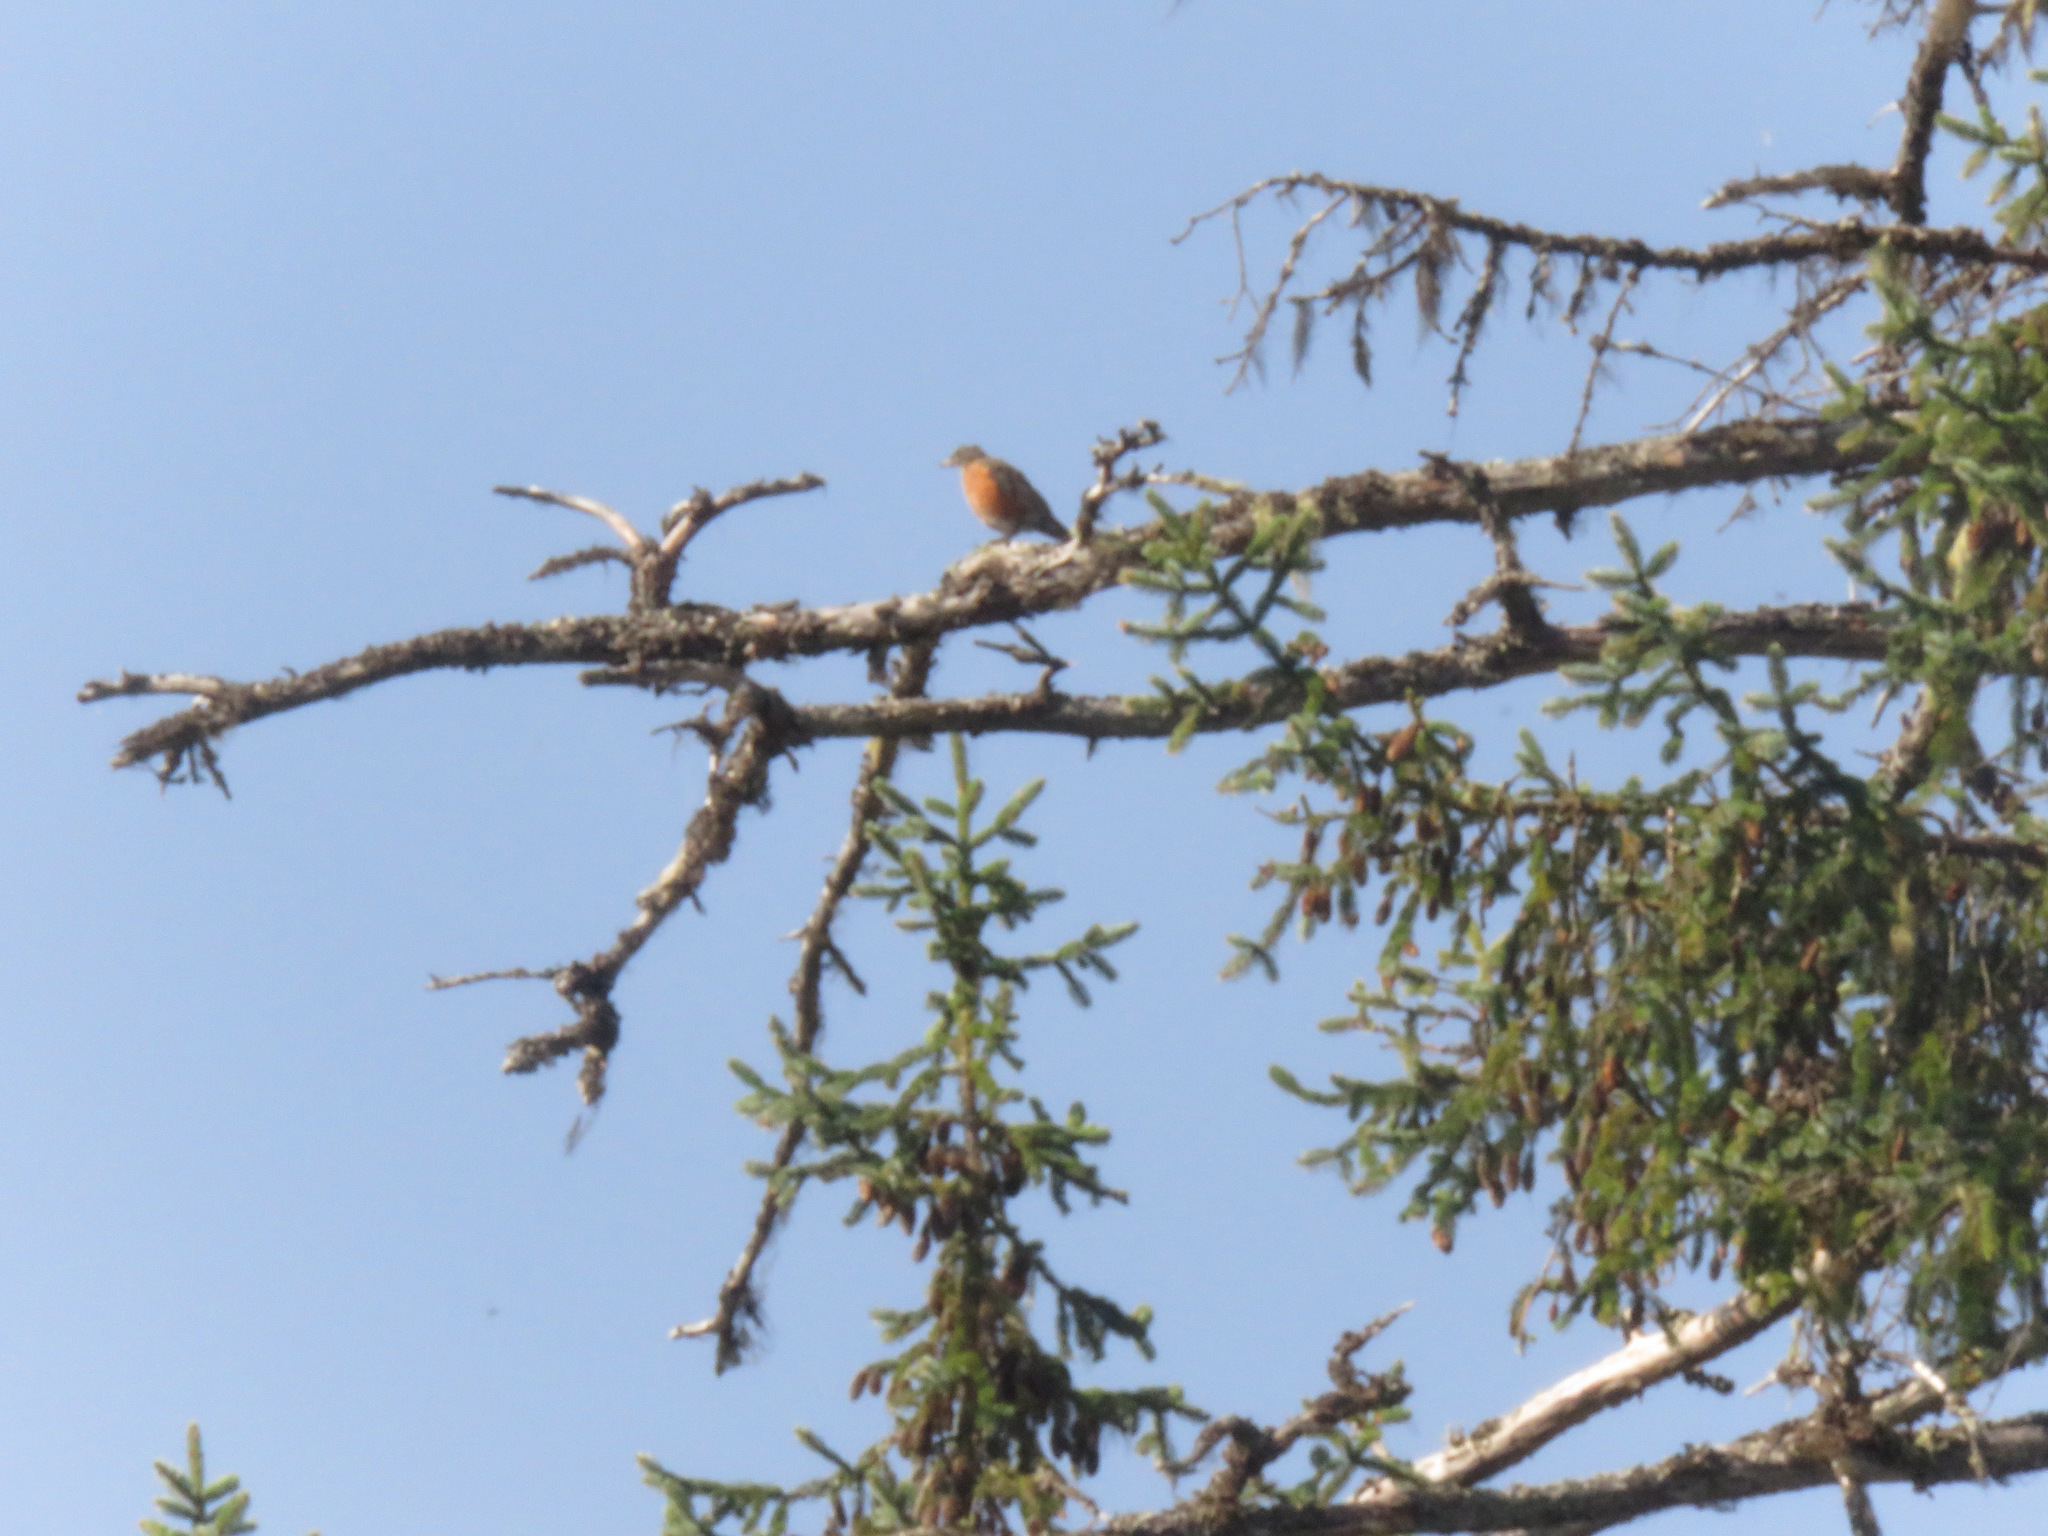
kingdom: Animalia
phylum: Chordata
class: Aves
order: Passeriformes
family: Turdidae
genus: Turdus
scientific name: Turdus migratorius
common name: American robin
